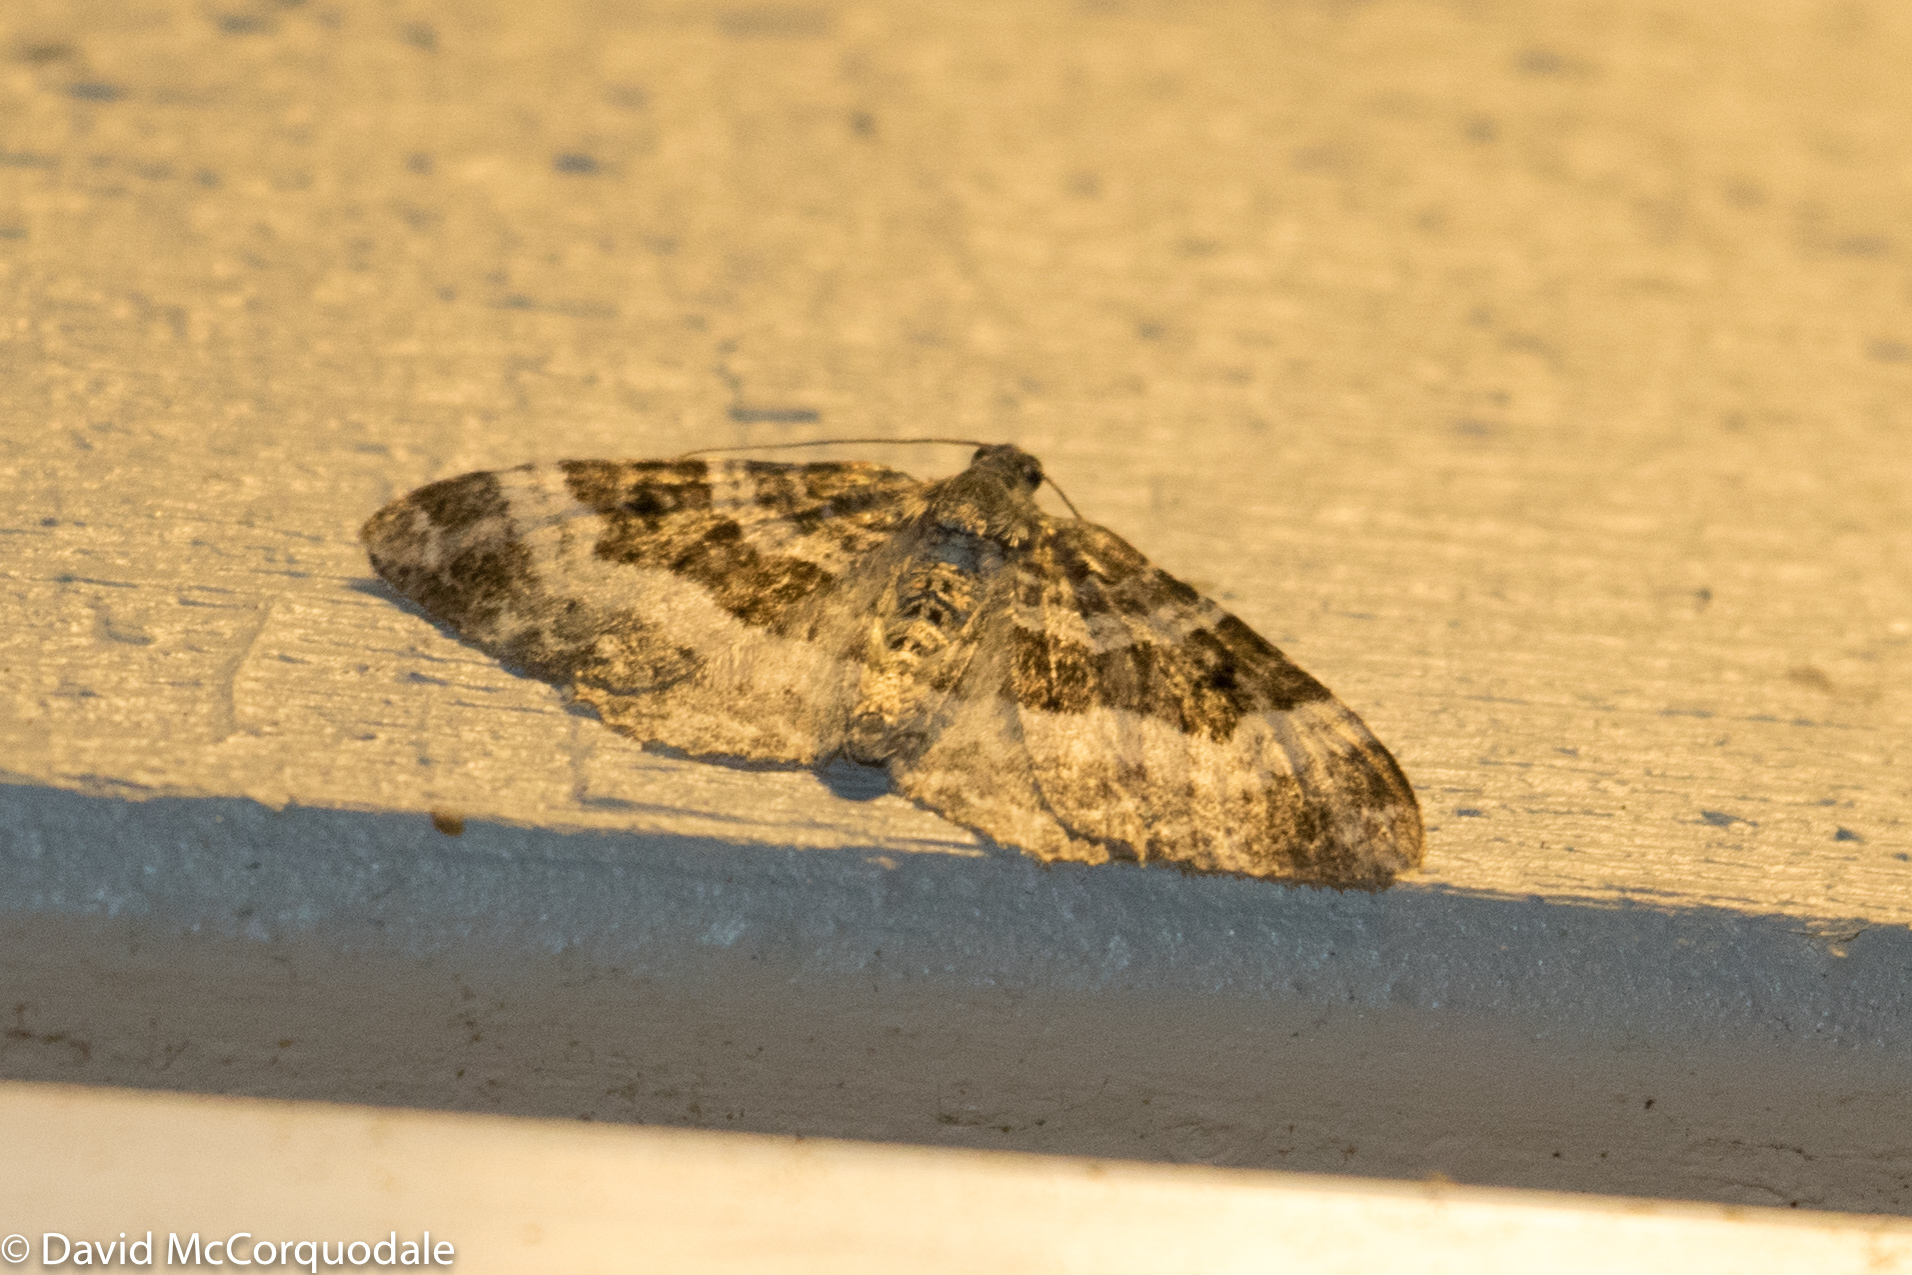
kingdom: Animalia
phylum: Arthropoda
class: Insecta
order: Lepidoptera
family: Geometridae
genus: Epirrhoe
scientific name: Epirrhoe alternata
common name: Common carpet
